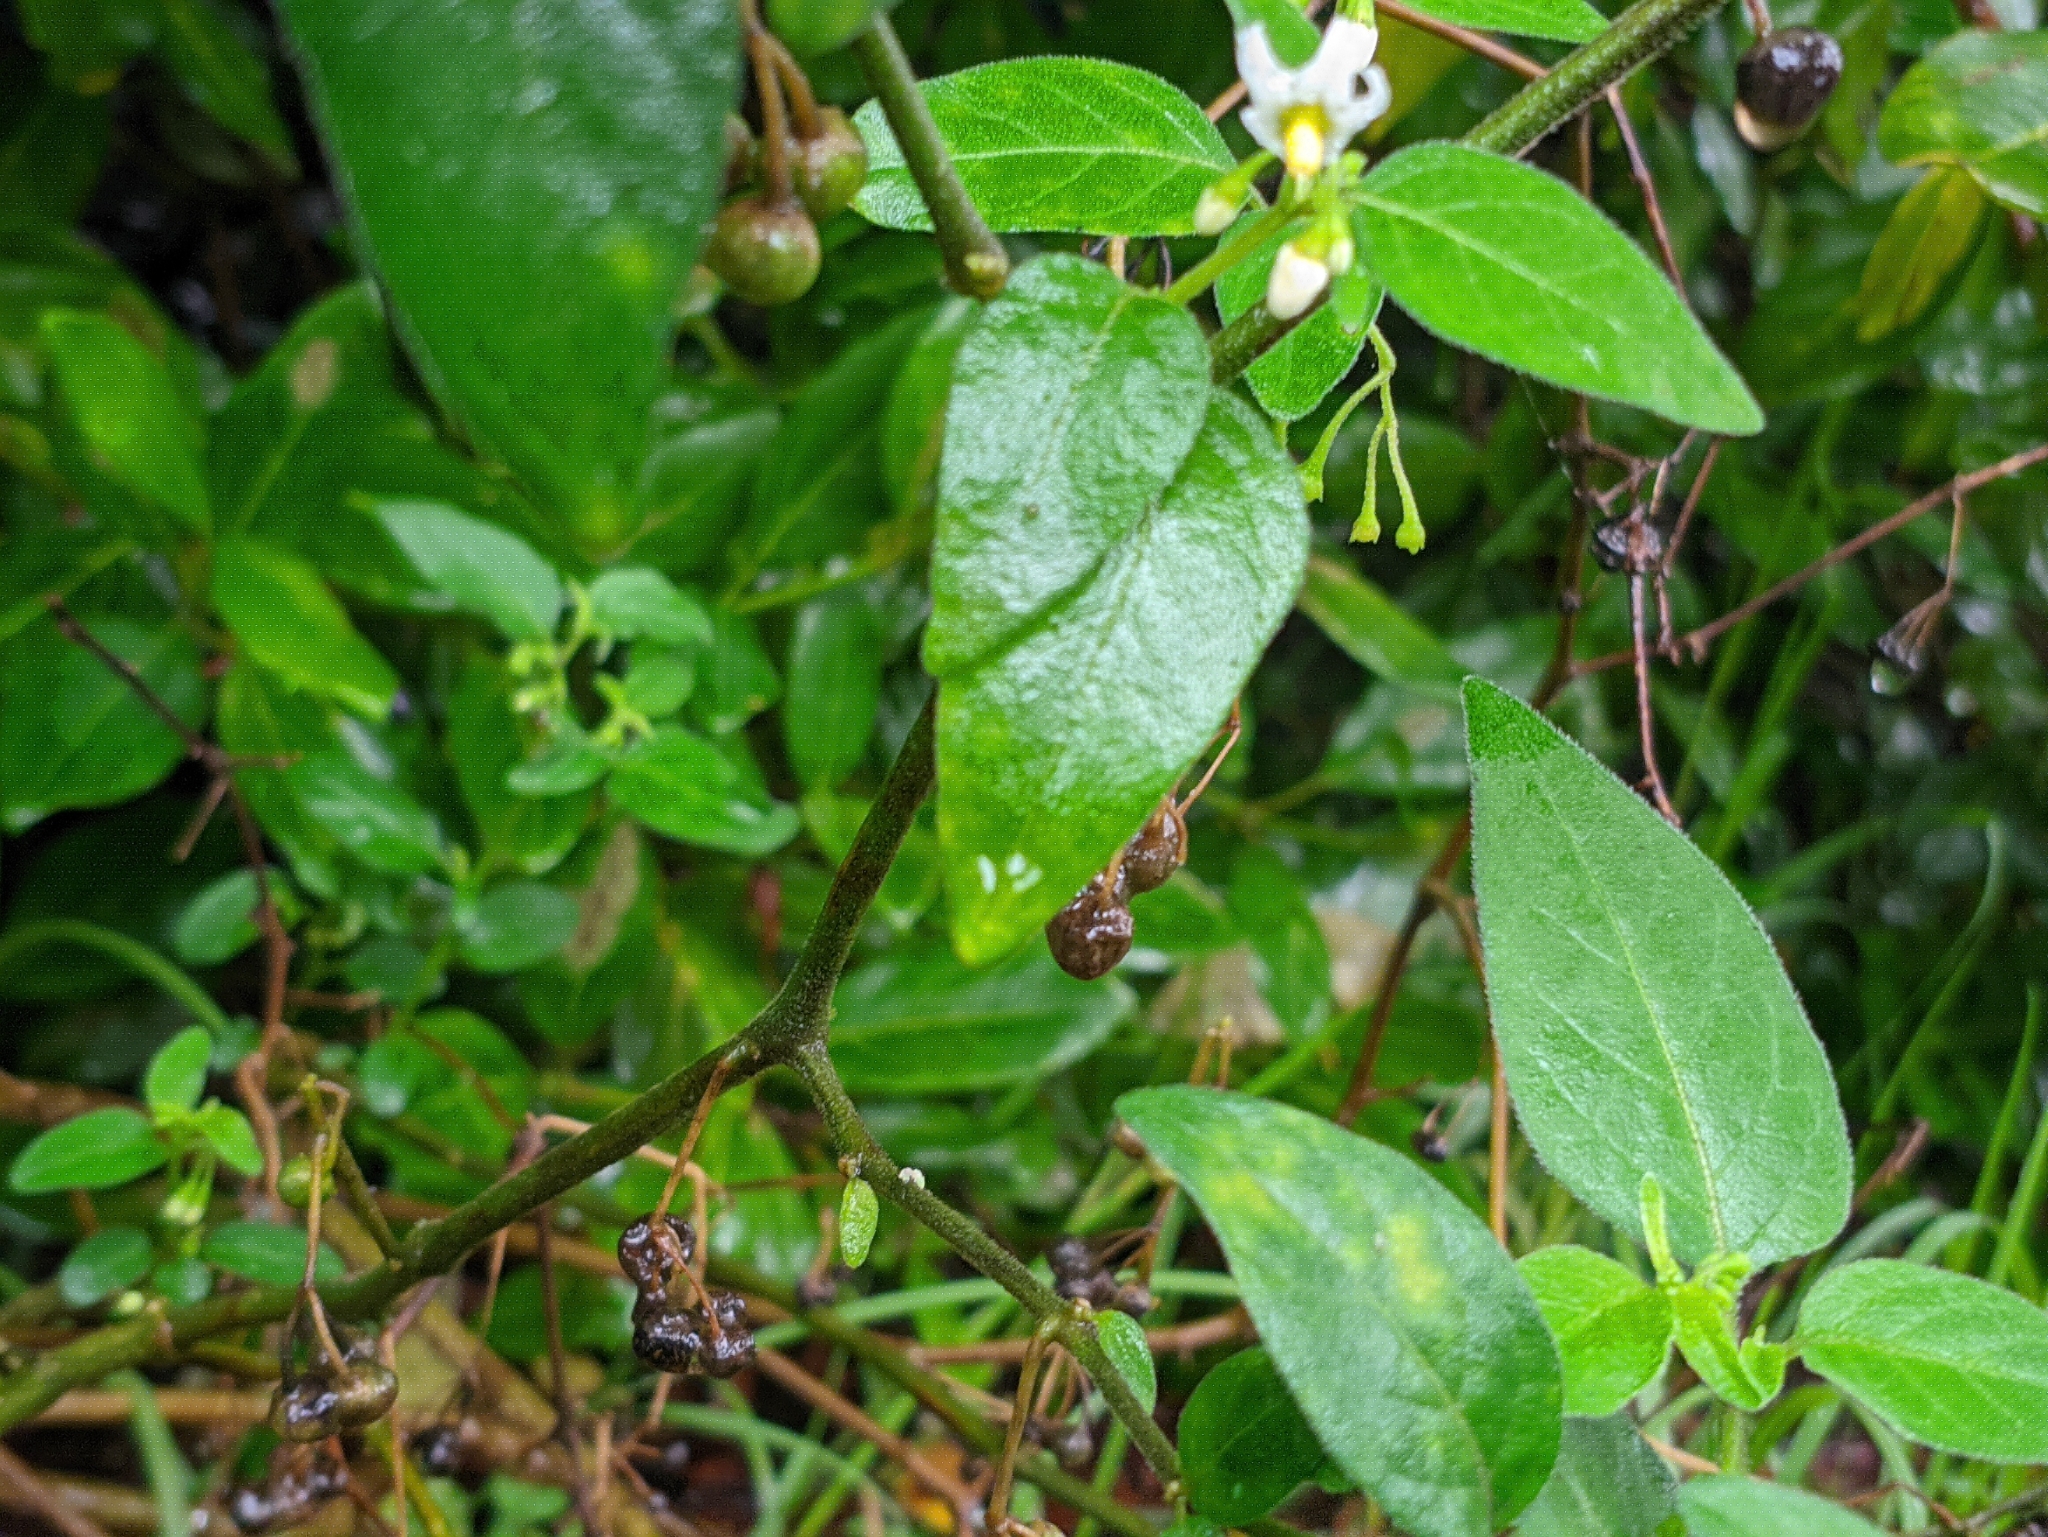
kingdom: Plantae
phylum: Tracheophyta
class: Magnoliopsida
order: Solanales
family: Solanaceae
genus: Solanum
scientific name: Solanum chenopodioides
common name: Tall nightshade
